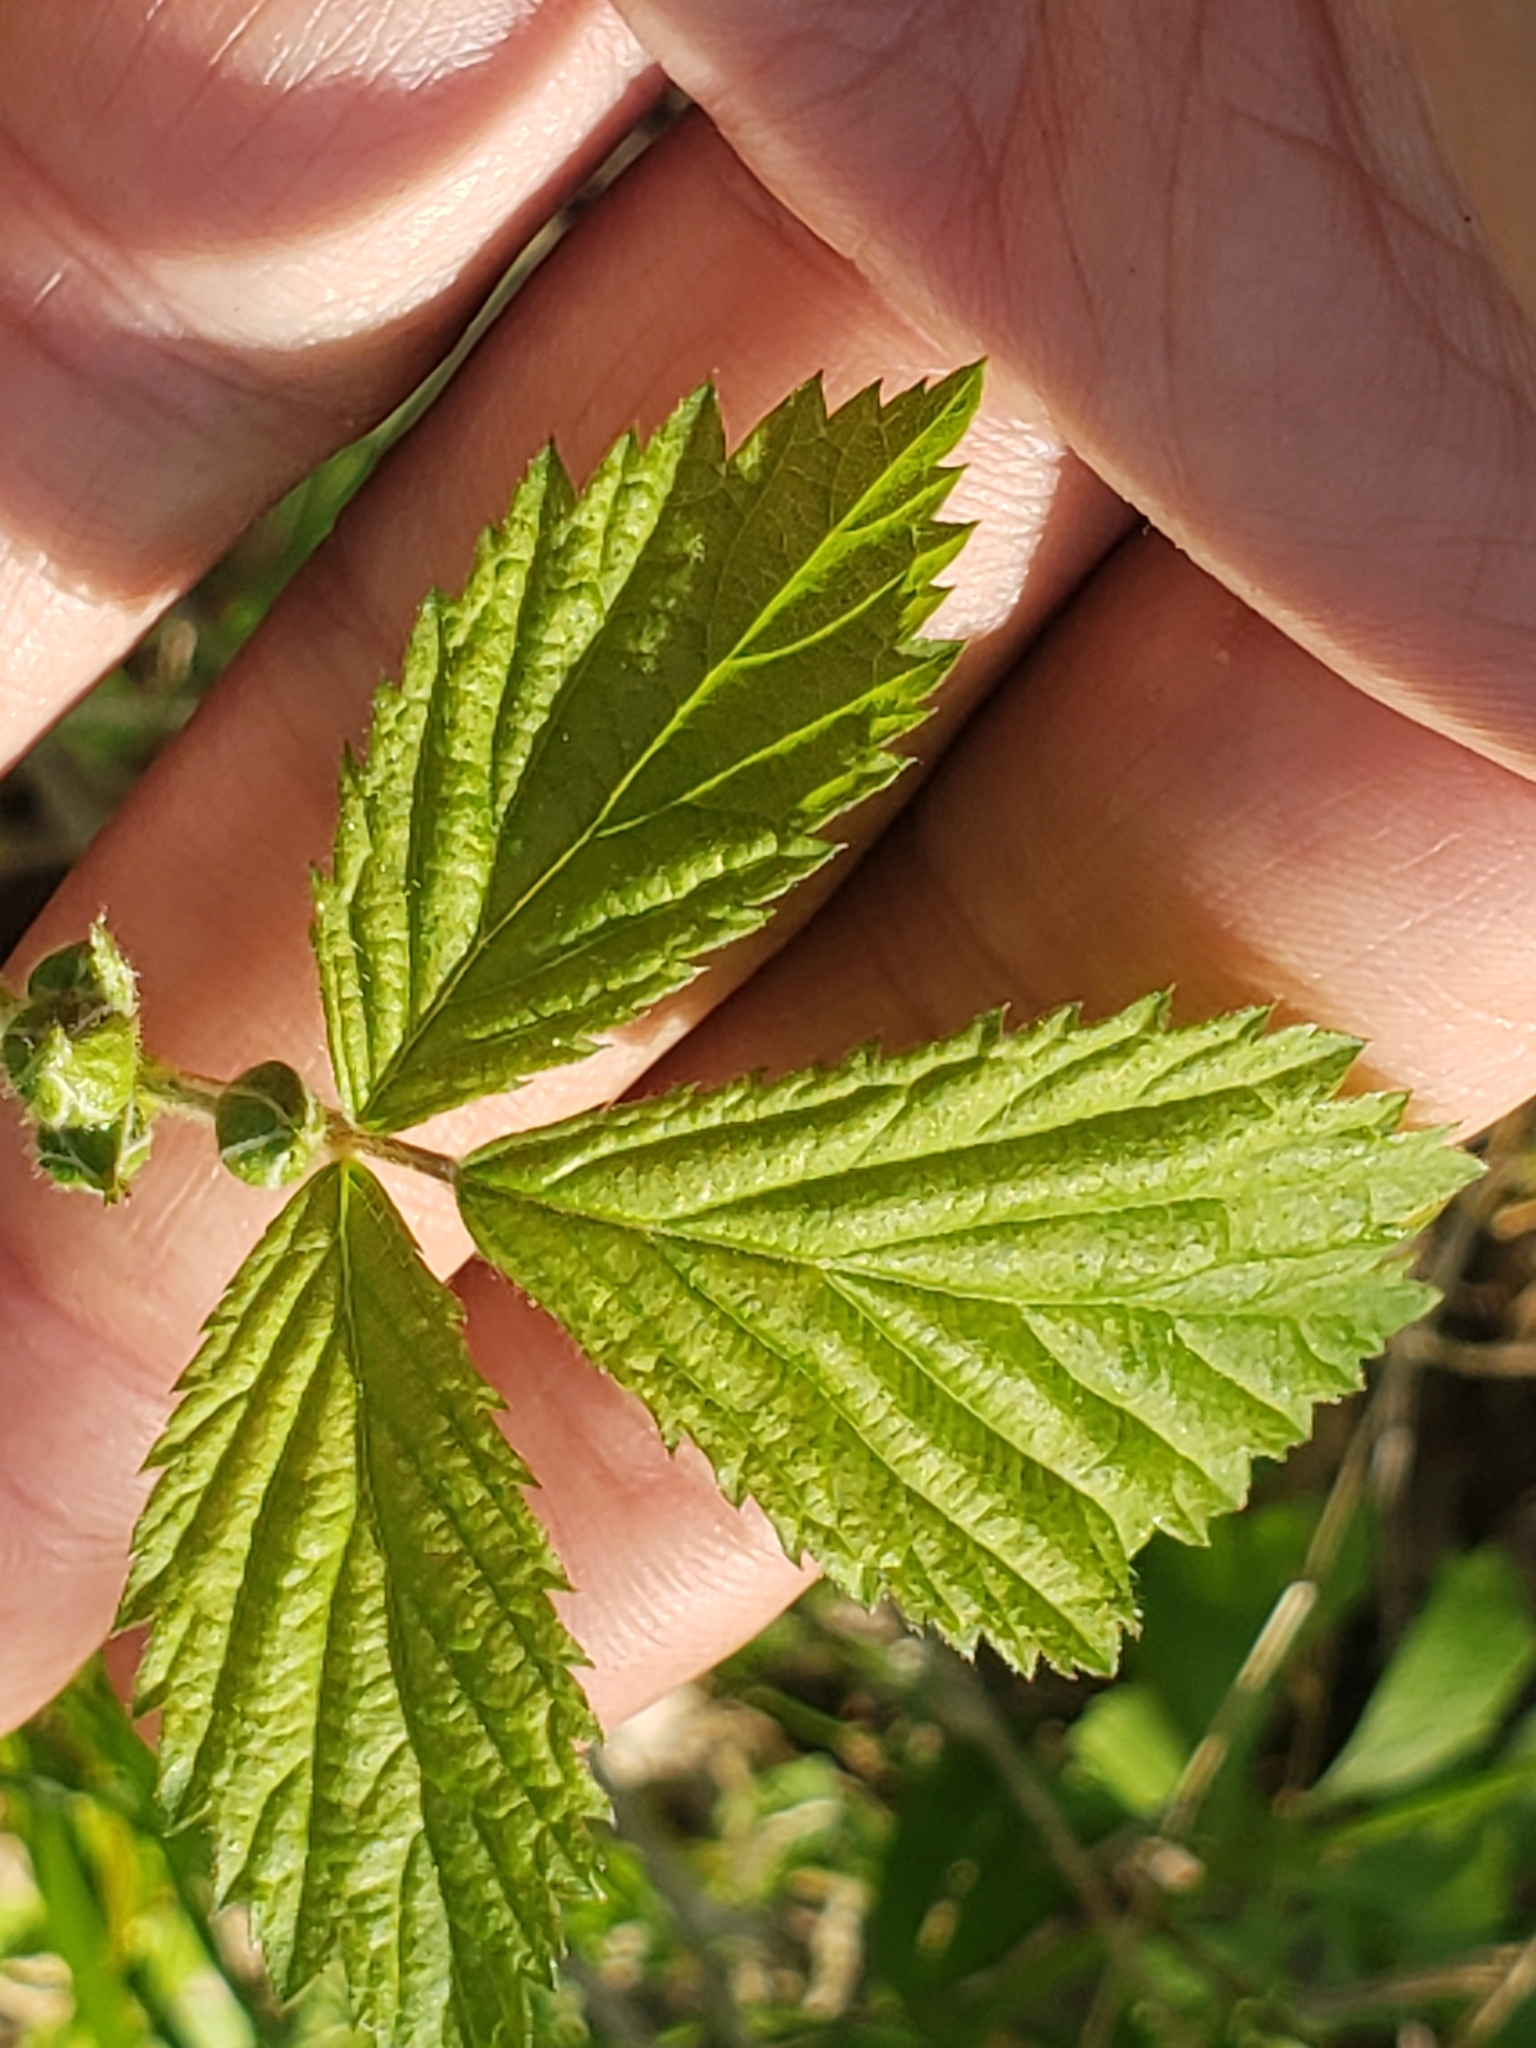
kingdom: Animalia
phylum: Arthropoda
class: Insecta
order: Hymenoptera
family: Cynipidae
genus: Diastrophus
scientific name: Diastrophus
